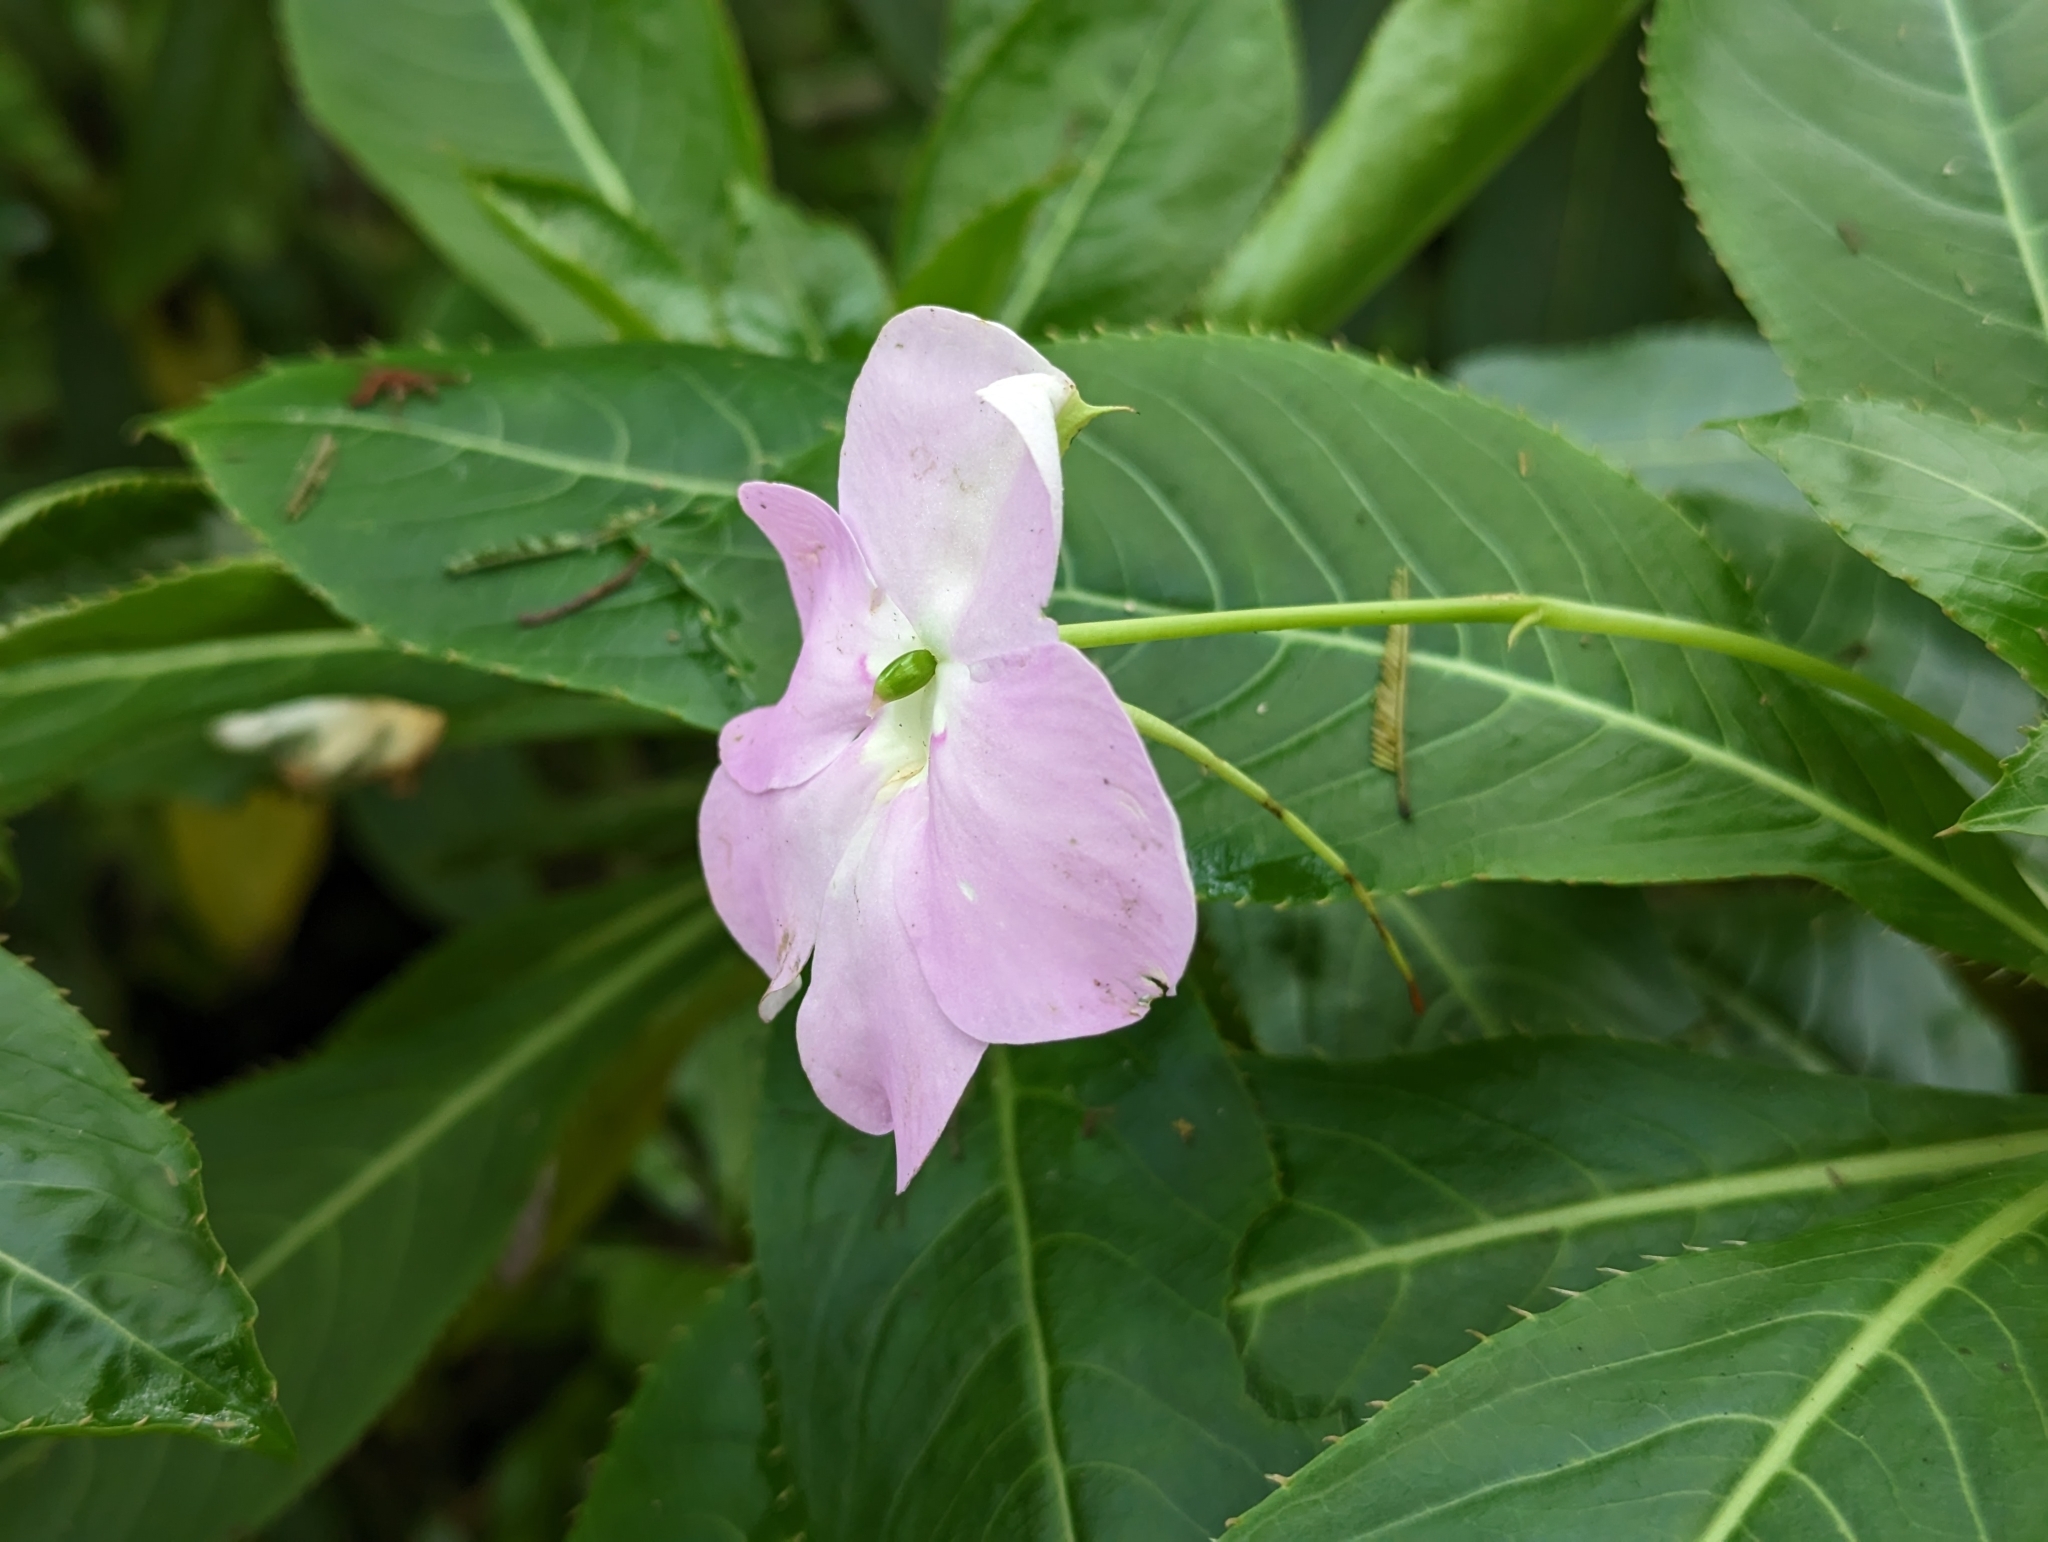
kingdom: Plantae
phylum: Tracheophyta
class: Magnoliopsida
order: Ericales
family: Balsaminaceae
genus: Impatiens
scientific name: Impatiens sodenii
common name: Oliver's touch-me-not
